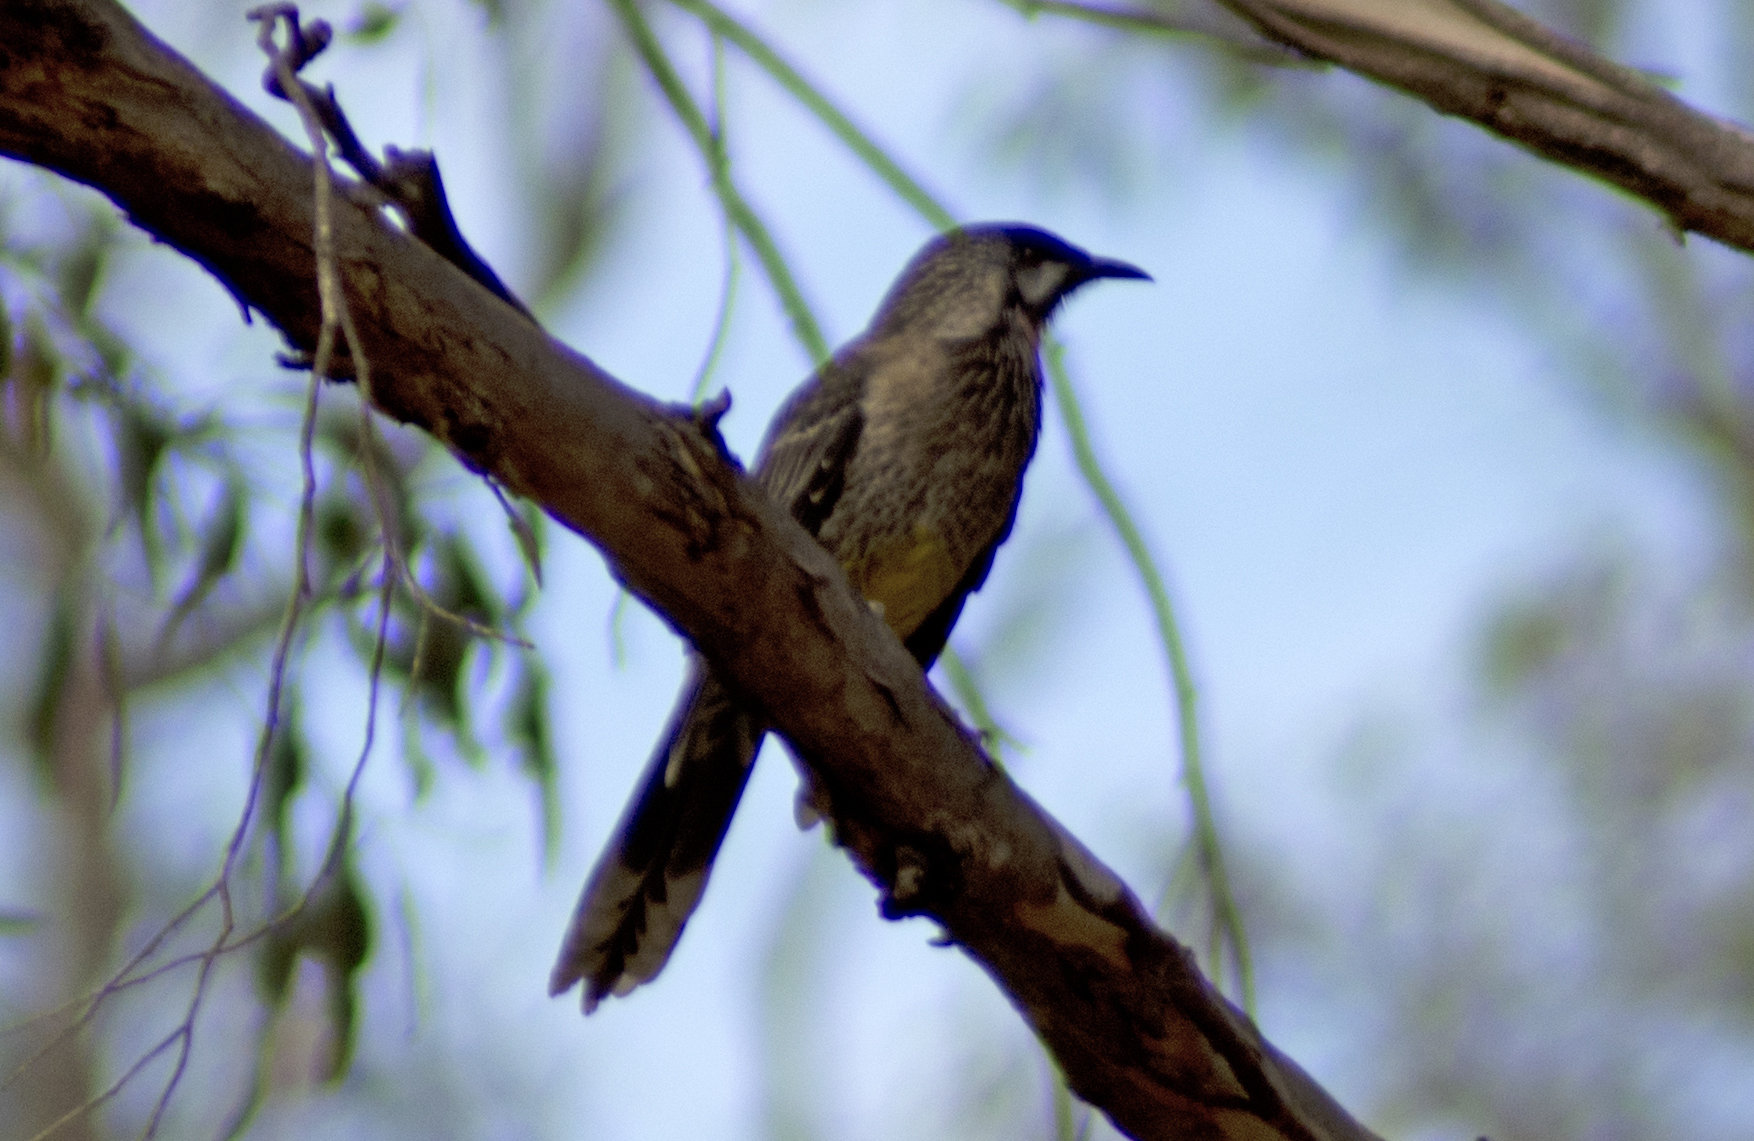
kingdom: Animalia
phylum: Chordata
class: Aves
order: Passeriformes
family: Meliphagidae
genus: Anthochaera
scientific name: Anthochaera carunculata
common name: Red wattlebird
